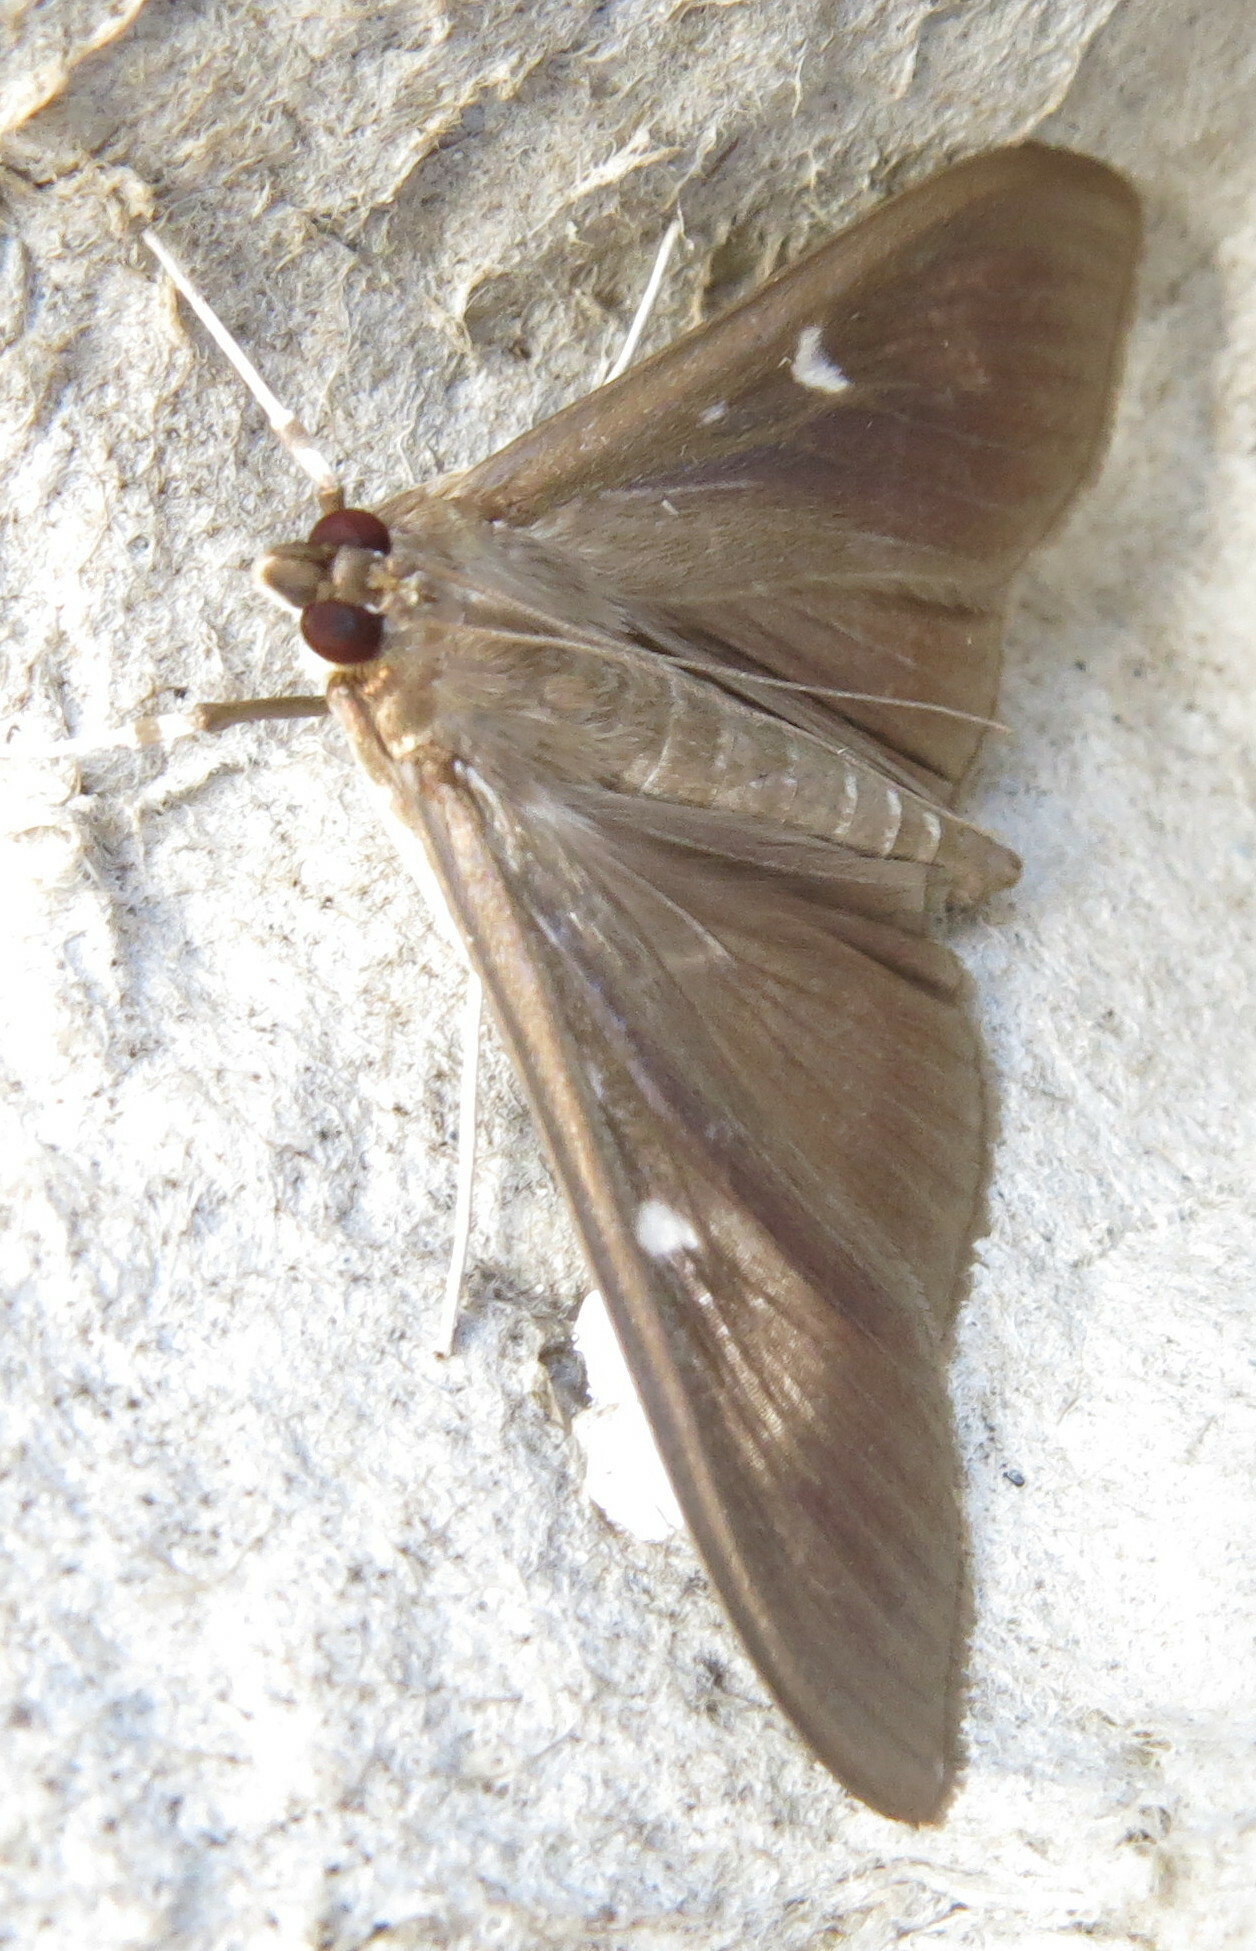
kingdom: Animalia
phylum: Arthropoda
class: Insecta
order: Lepidoptera
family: Crambidae
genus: Cydalima
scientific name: Cydalima perspectalis
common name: Box tree moth
